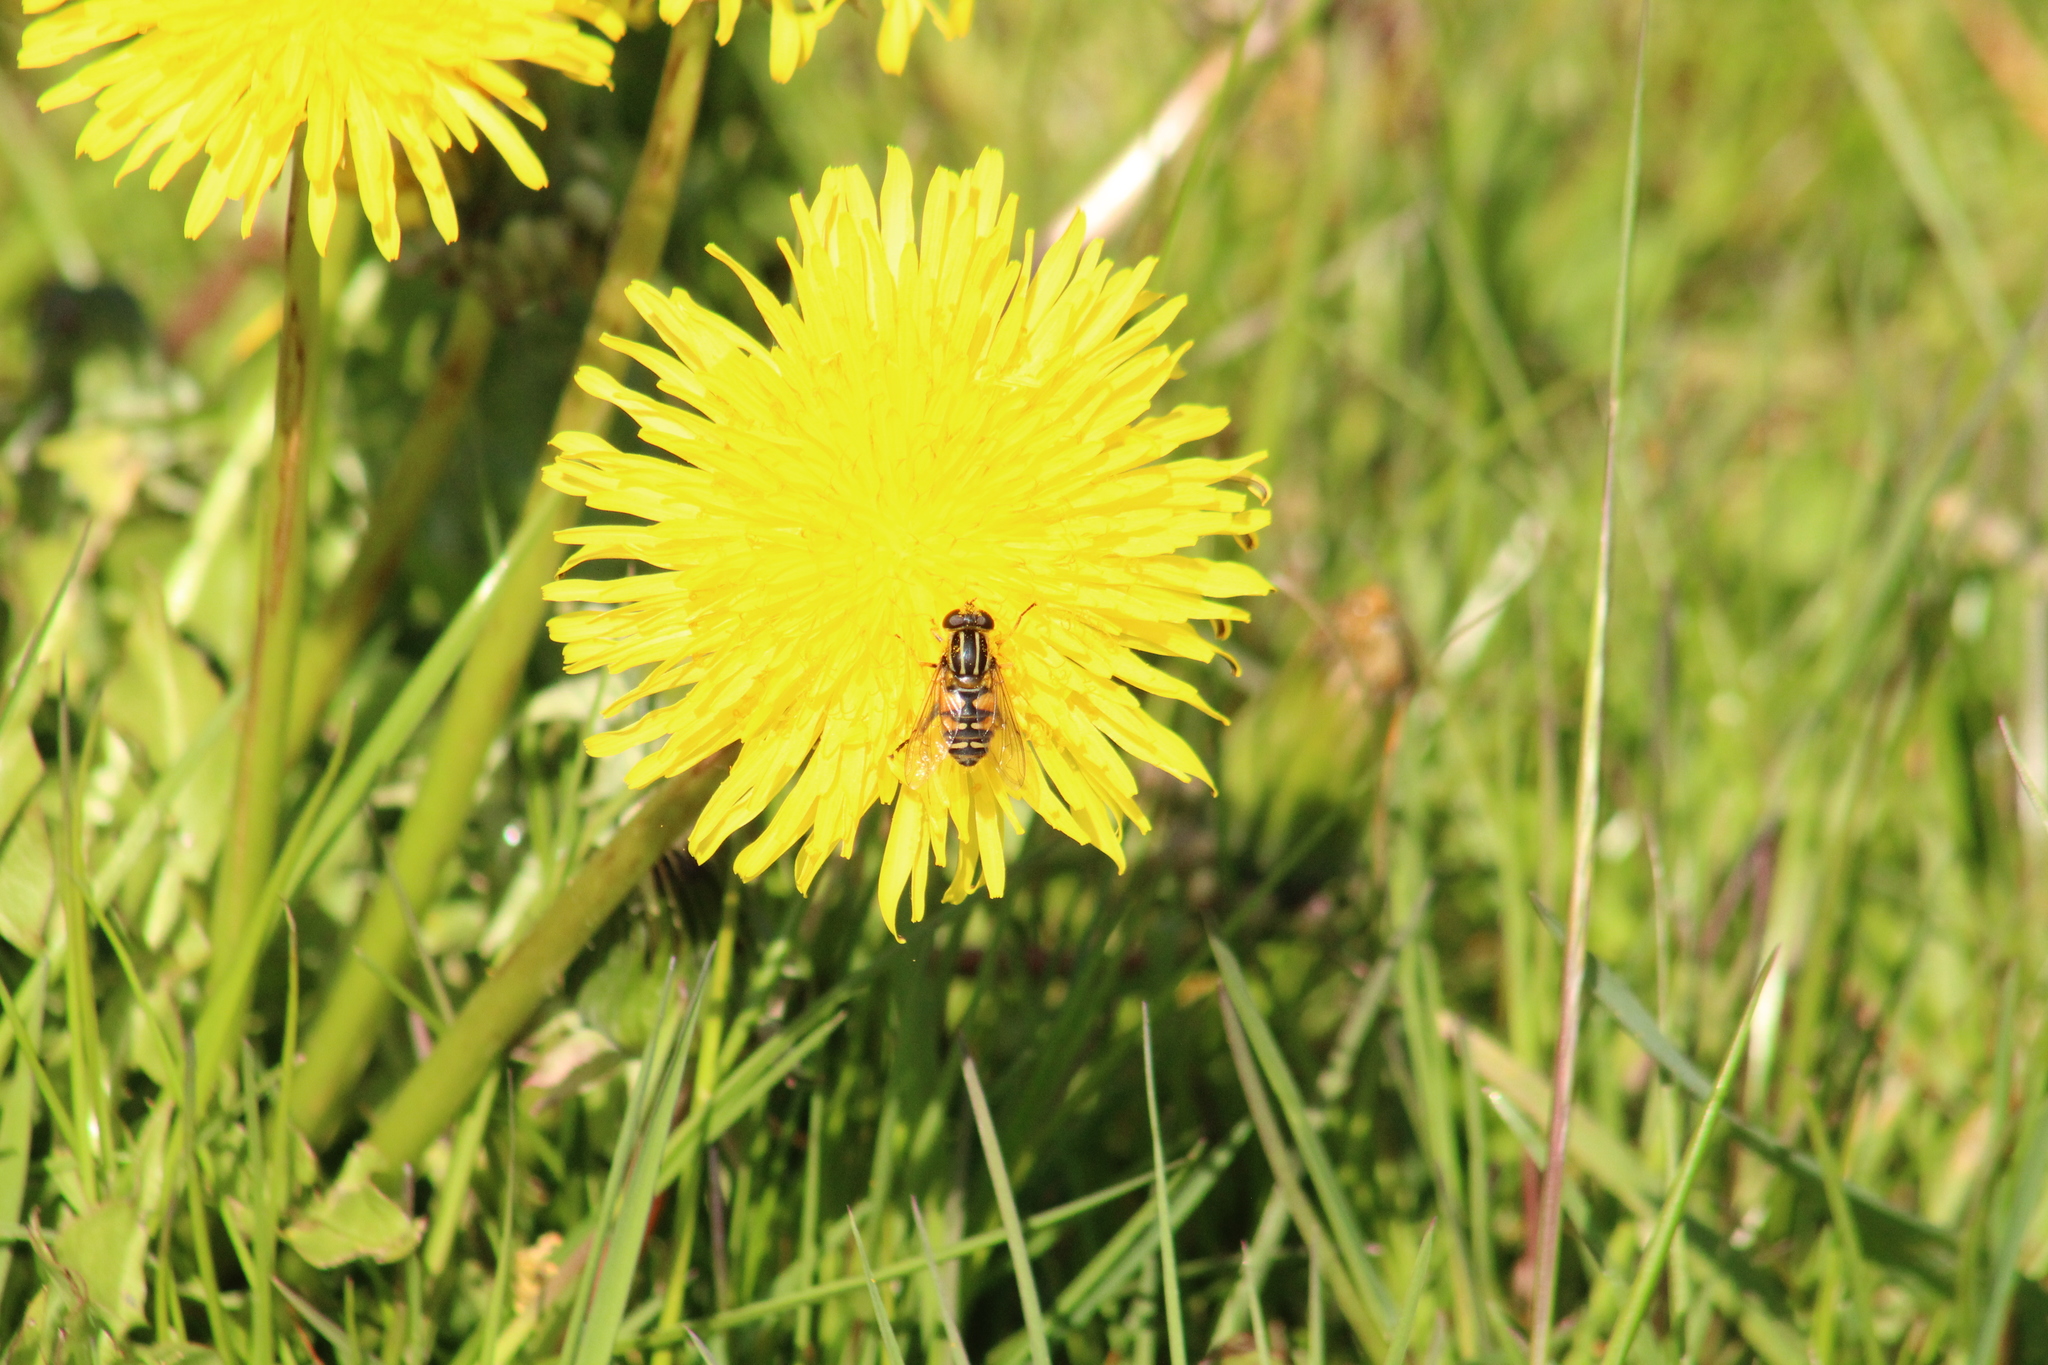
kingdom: Animalia
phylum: Arthropoda
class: Insecta
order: Diptera
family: Syrphidae
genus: Helophilus
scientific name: Helophilus pendulus
